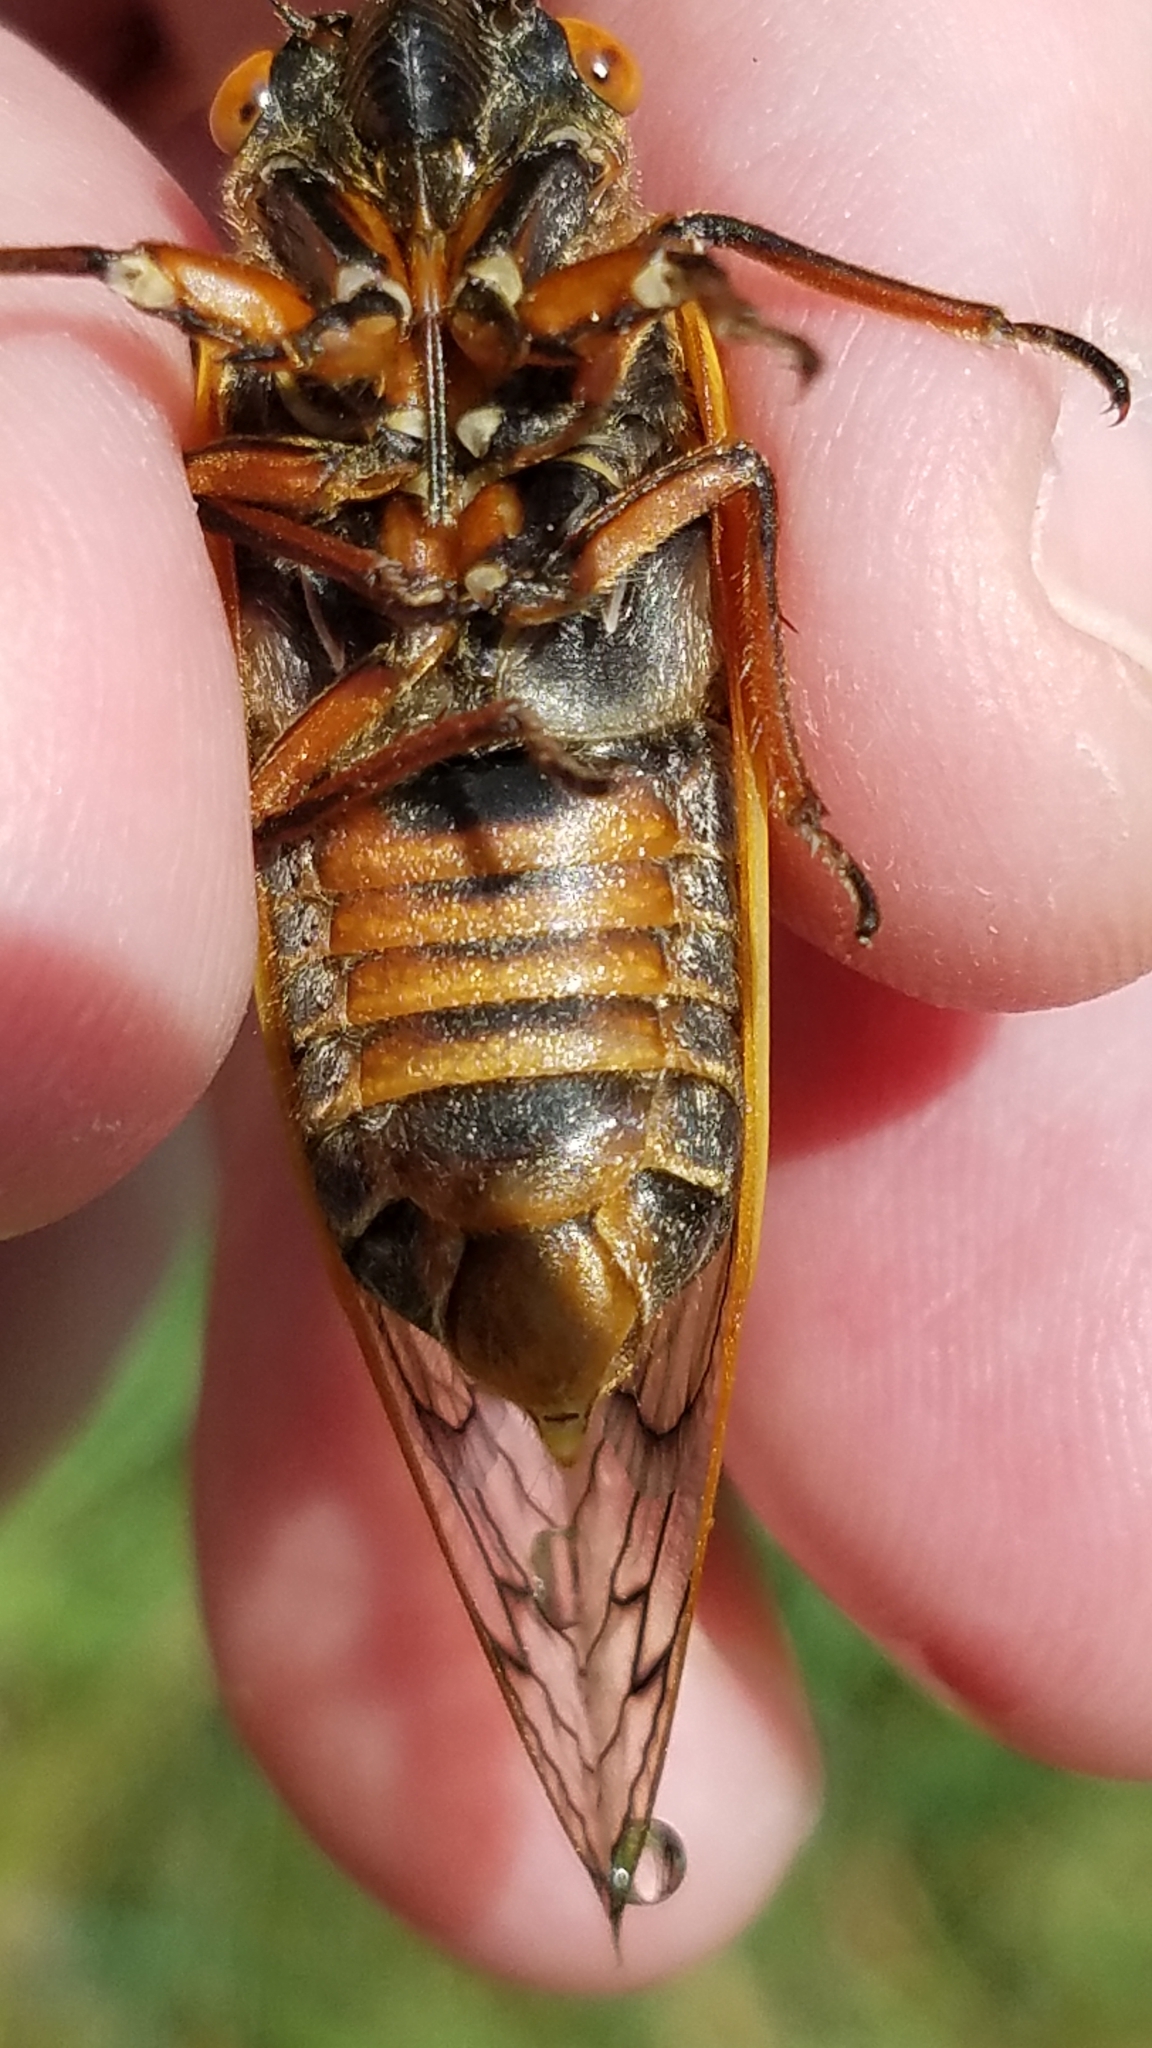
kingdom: Animalia
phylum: Arthropoda
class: Insecta
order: Hemiptera
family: Cicadidae
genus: Magicicada
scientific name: Magicicada septendecim
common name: Periodical cicada
